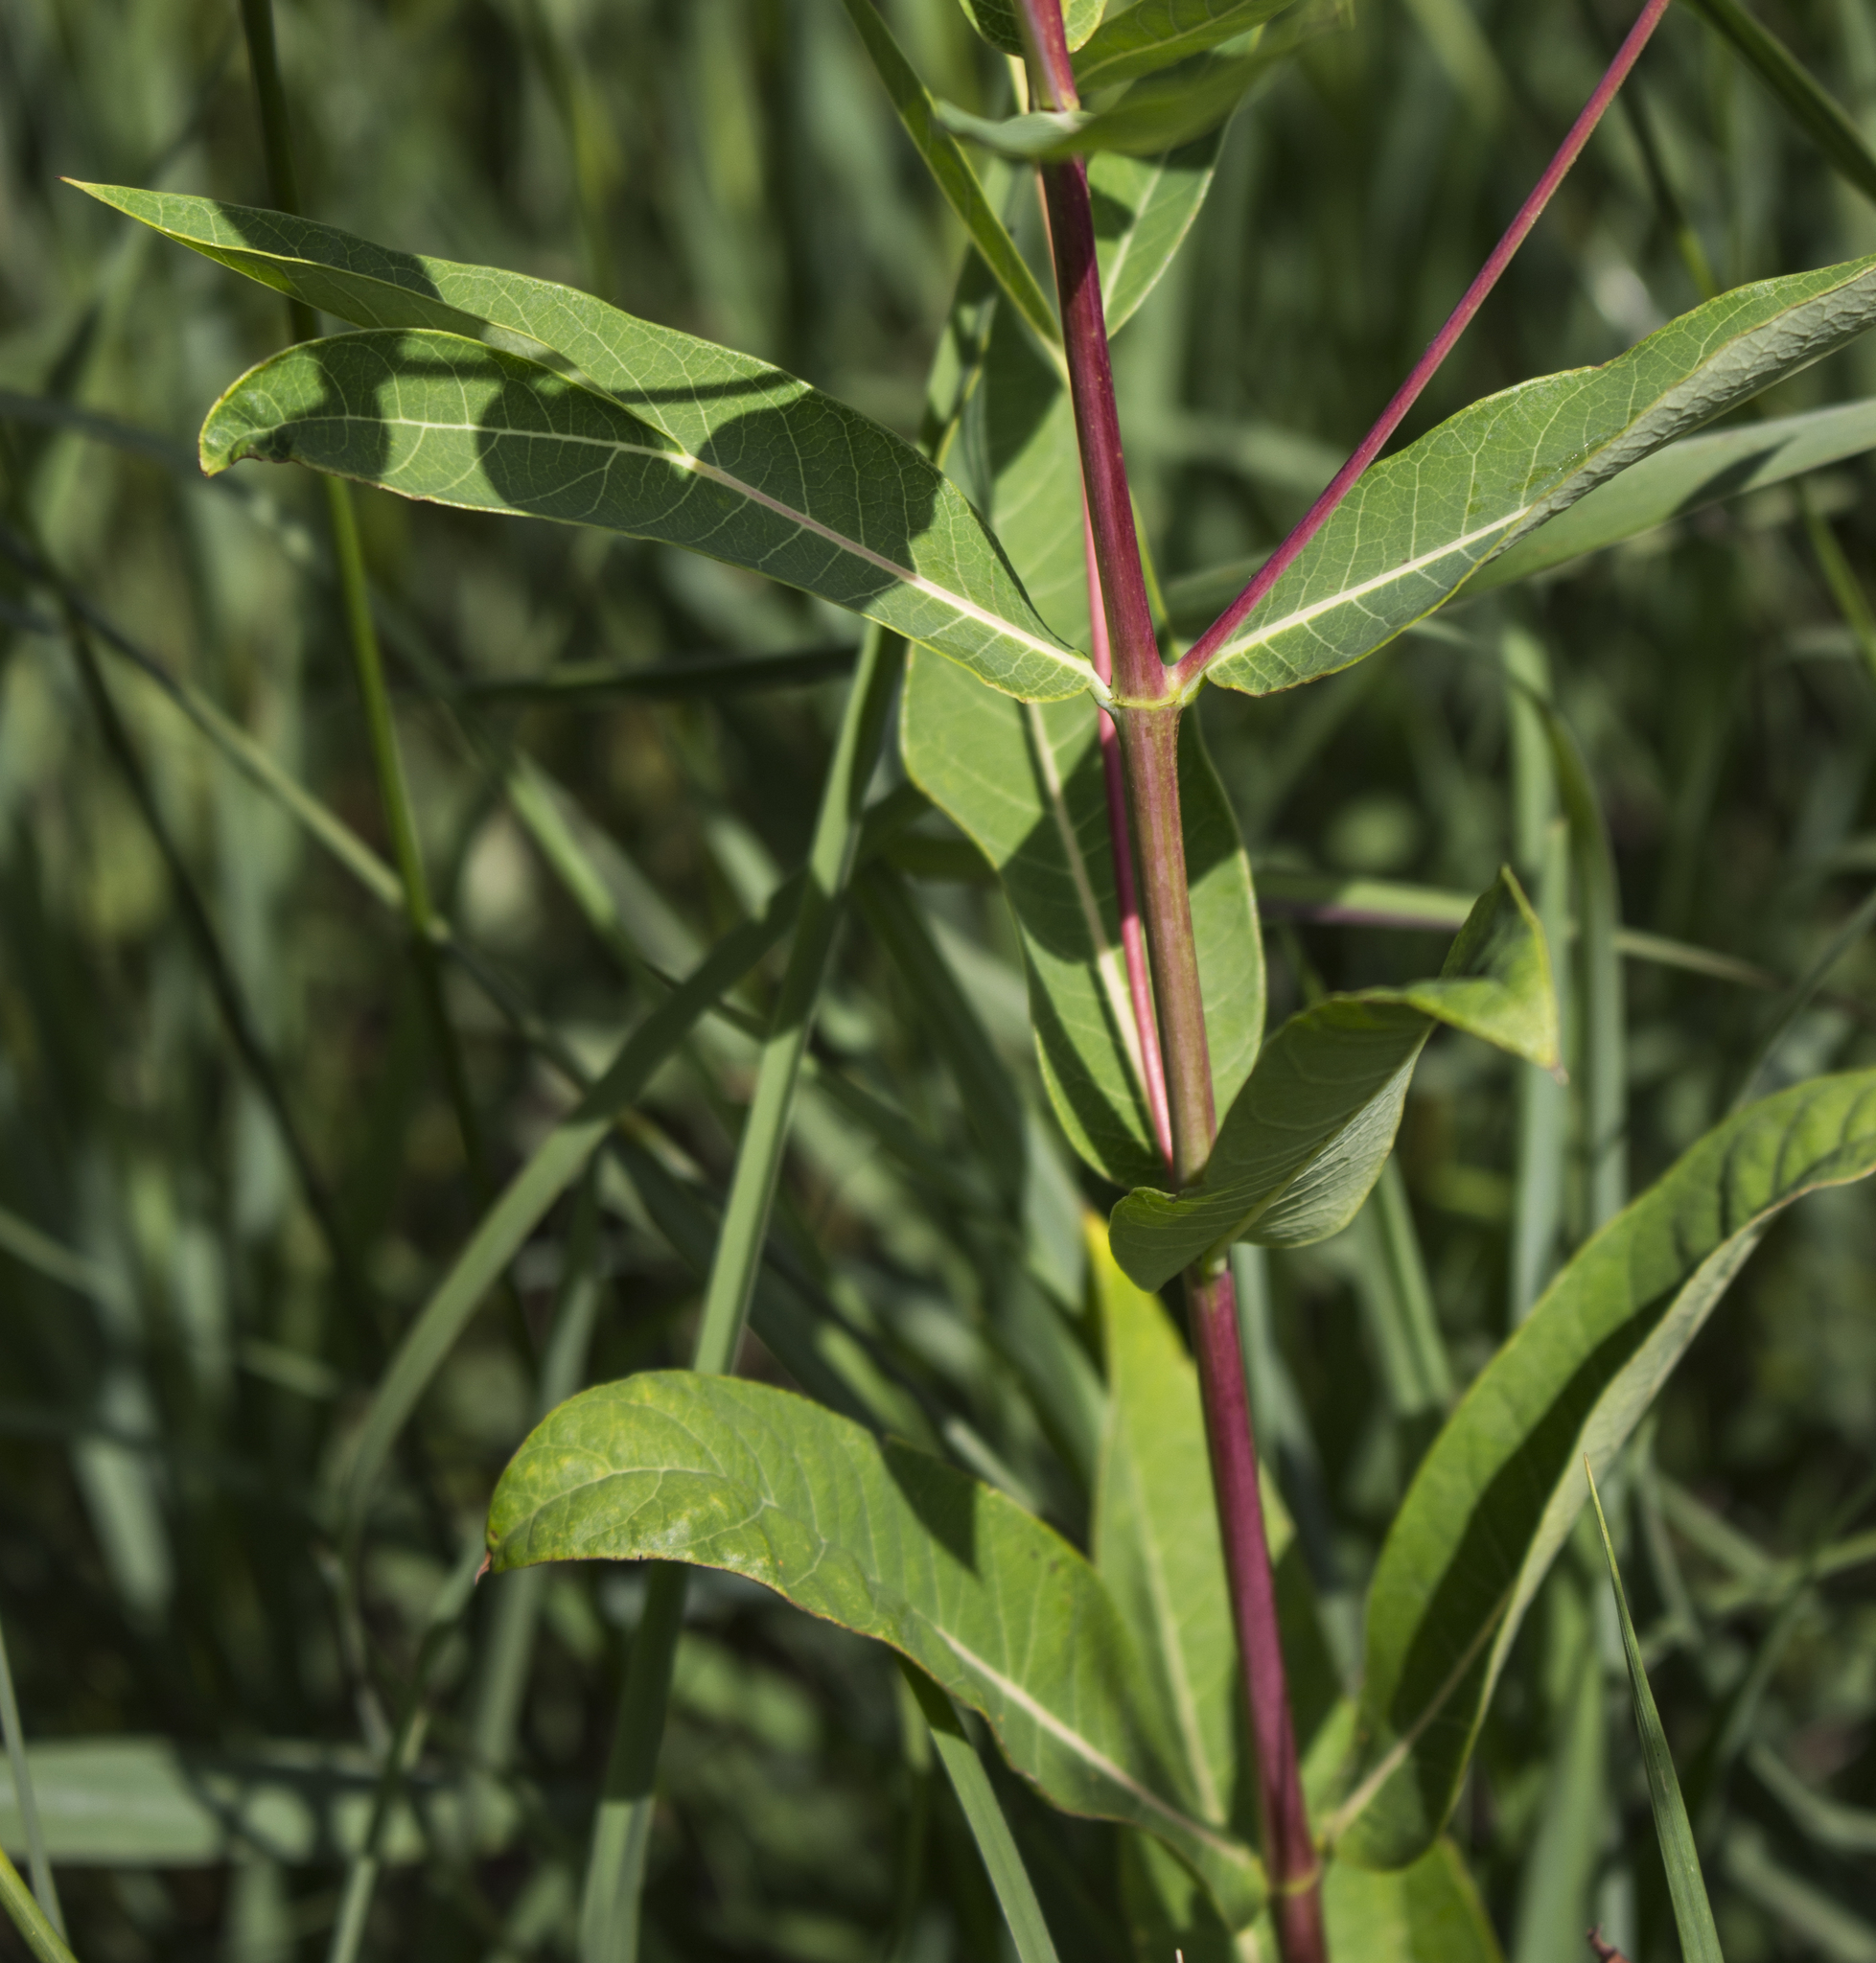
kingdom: Plantae
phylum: Tracheophyta
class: Magnoliopsida
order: Gentianales
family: Apocynaceae
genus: Apocynum
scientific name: Apocynum cannabinum
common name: Hemp dogbane
